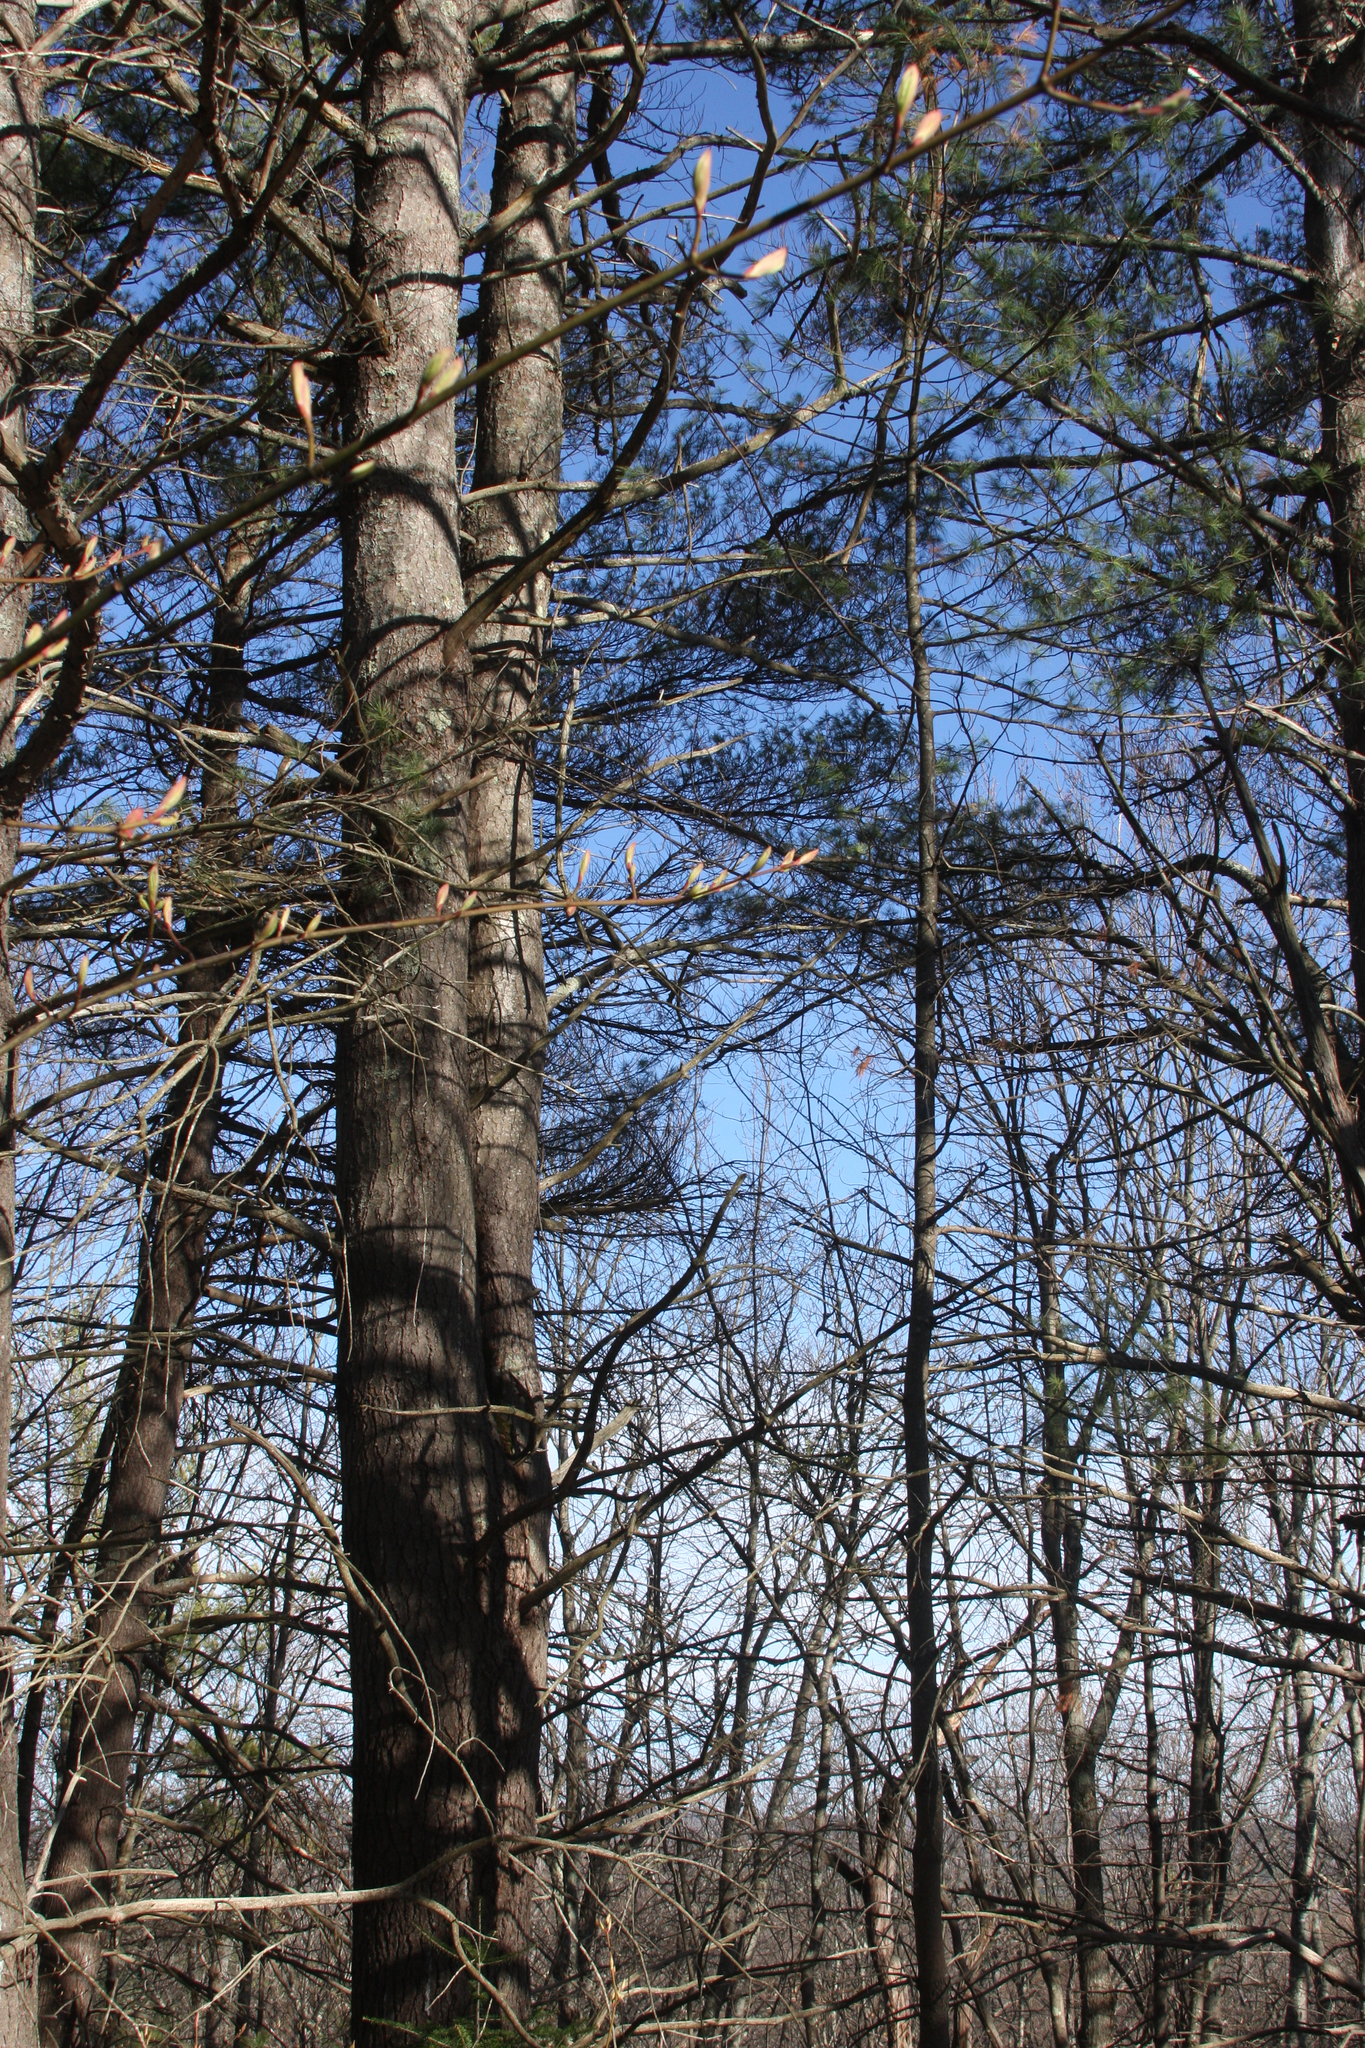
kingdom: Plantae
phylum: Tracheophyta
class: Pinopsida
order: Pinales
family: Pinaceae
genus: Pinus
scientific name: Pinus strobus
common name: Weymouth pine
